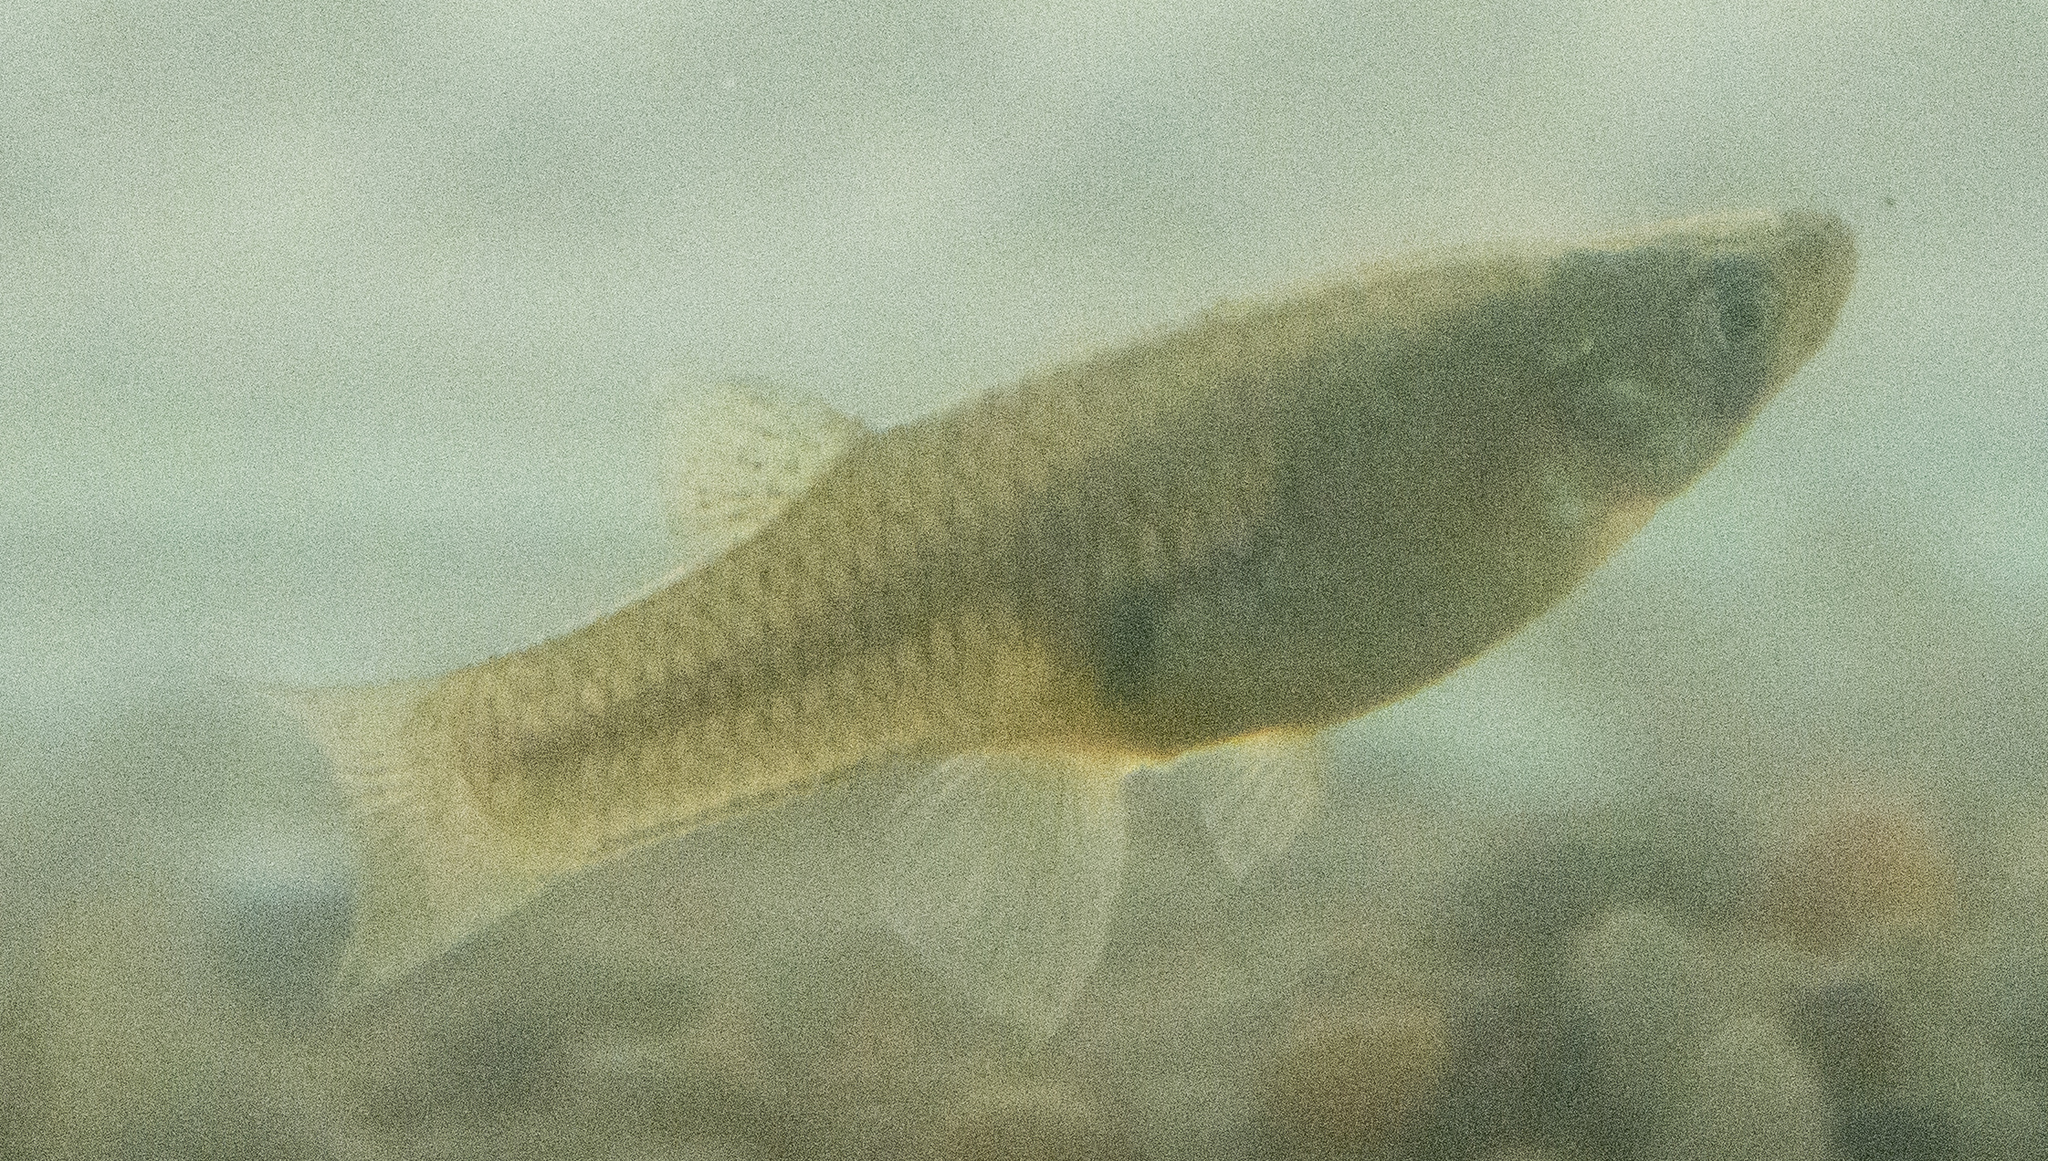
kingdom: Animalia
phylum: Chordata
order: Cyprinodontiformes
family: Poeciliidae
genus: Gambusia
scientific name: Gambusia affinis
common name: Mosquitofish
